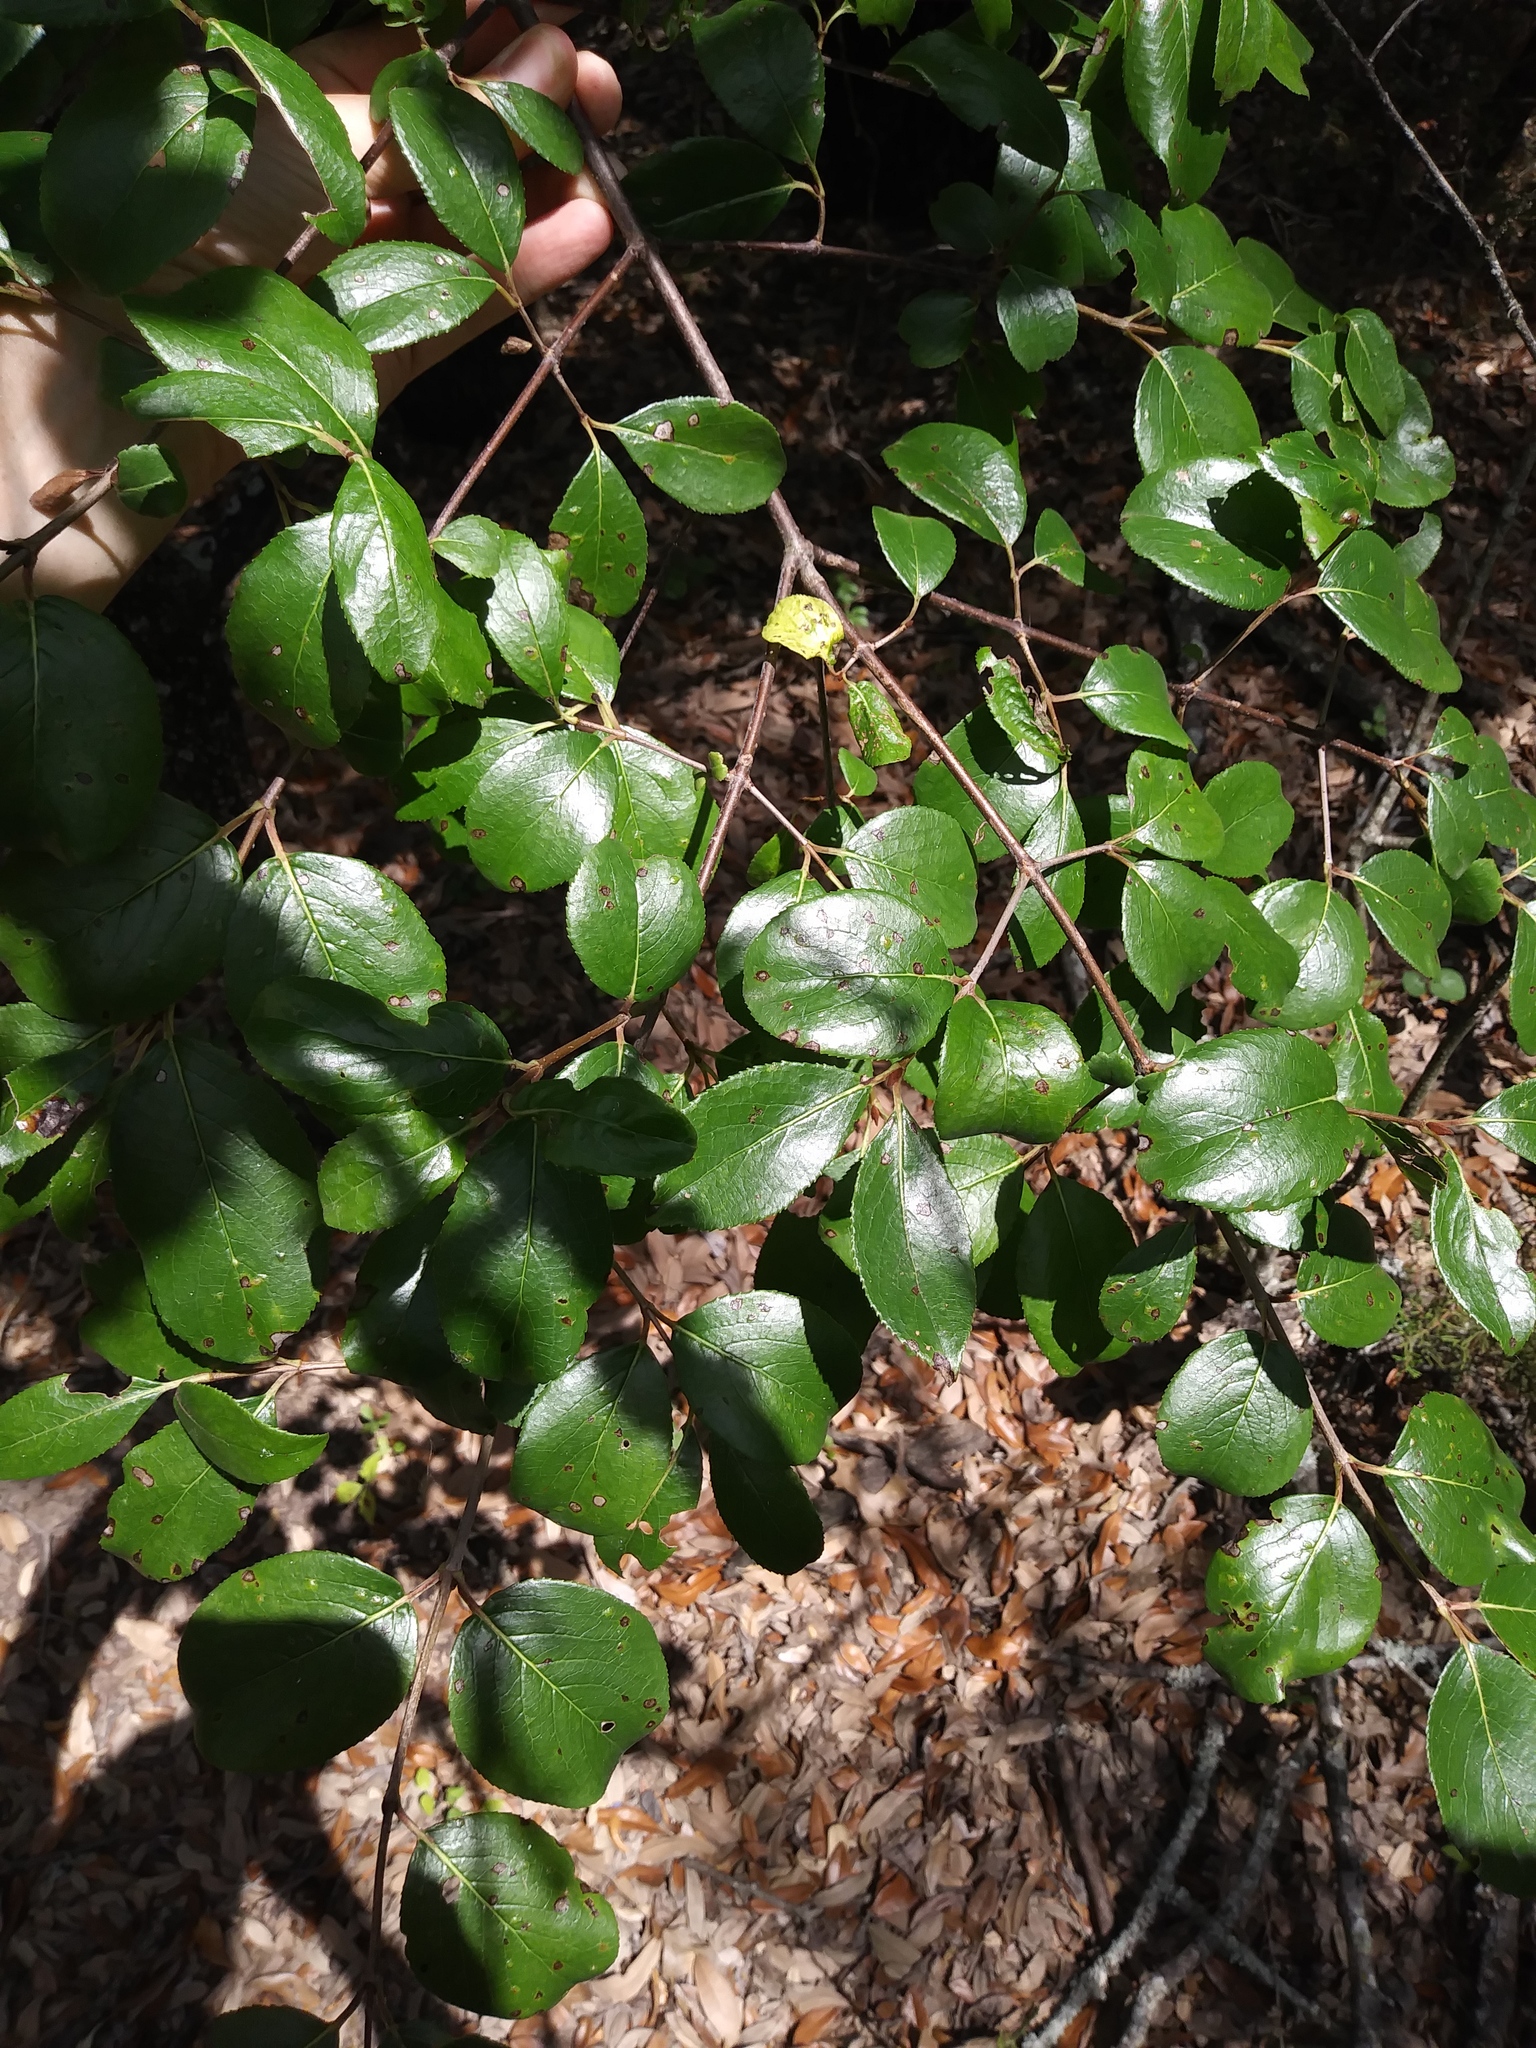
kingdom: Plantae
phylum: Tracheophyta
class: Magnoliopsida
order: Dipsacales
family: Viburnaceae
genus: Viburnum
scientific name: Viburnum rufidulum
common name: Blue haw
